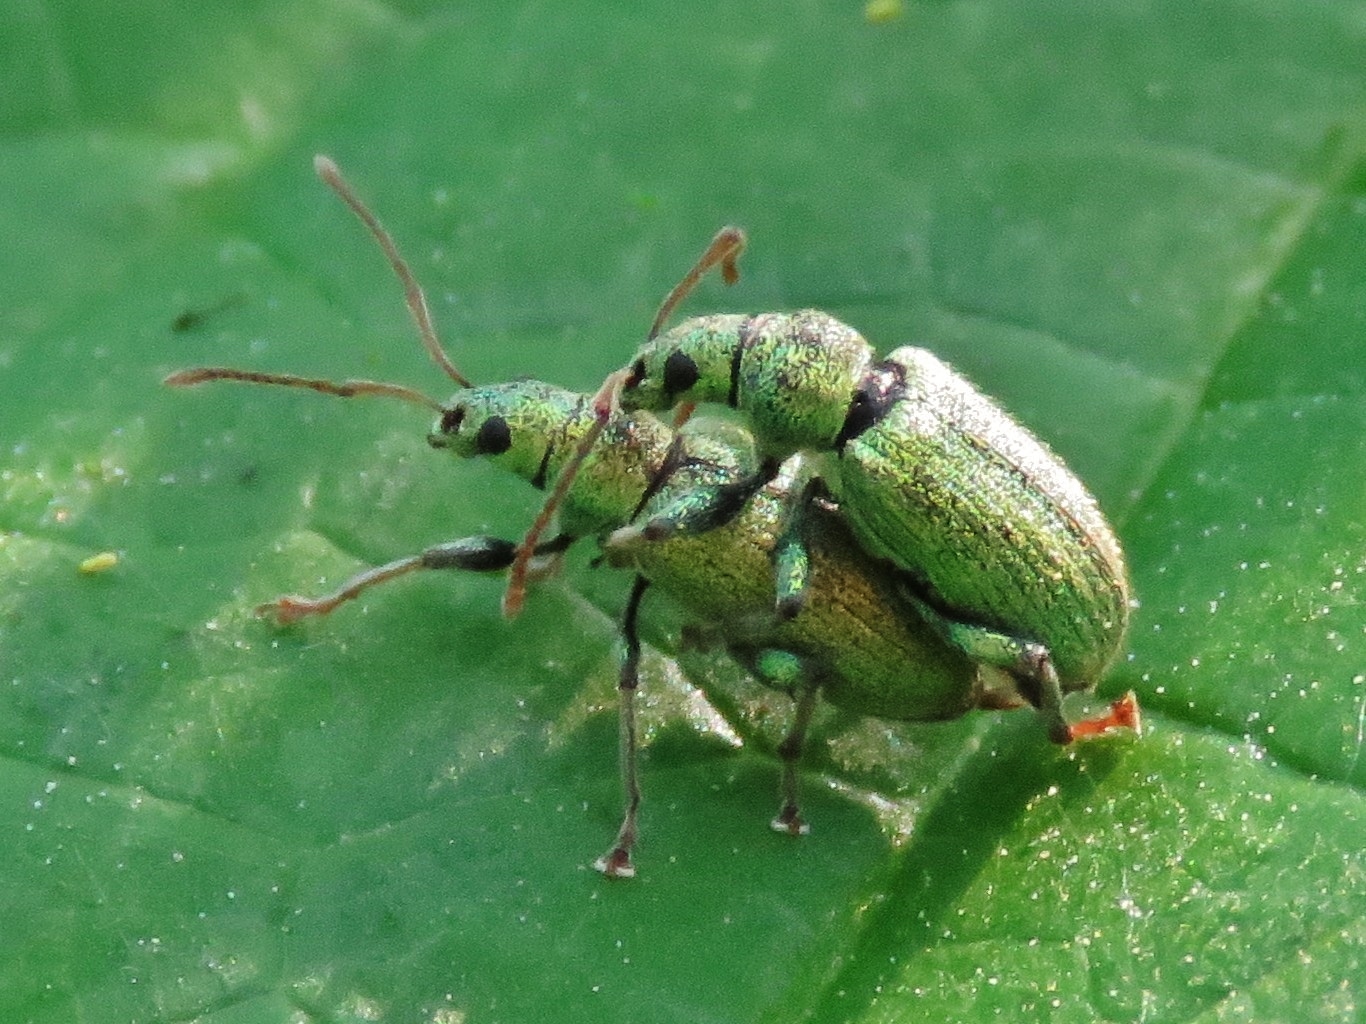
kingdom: Animalia
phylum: Arthropoda
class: Insecta
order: Coleoptera
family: Curculionidae
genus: Phyllobius
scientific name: Phyllobius argentatus
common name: Silver-green leaf weevil
